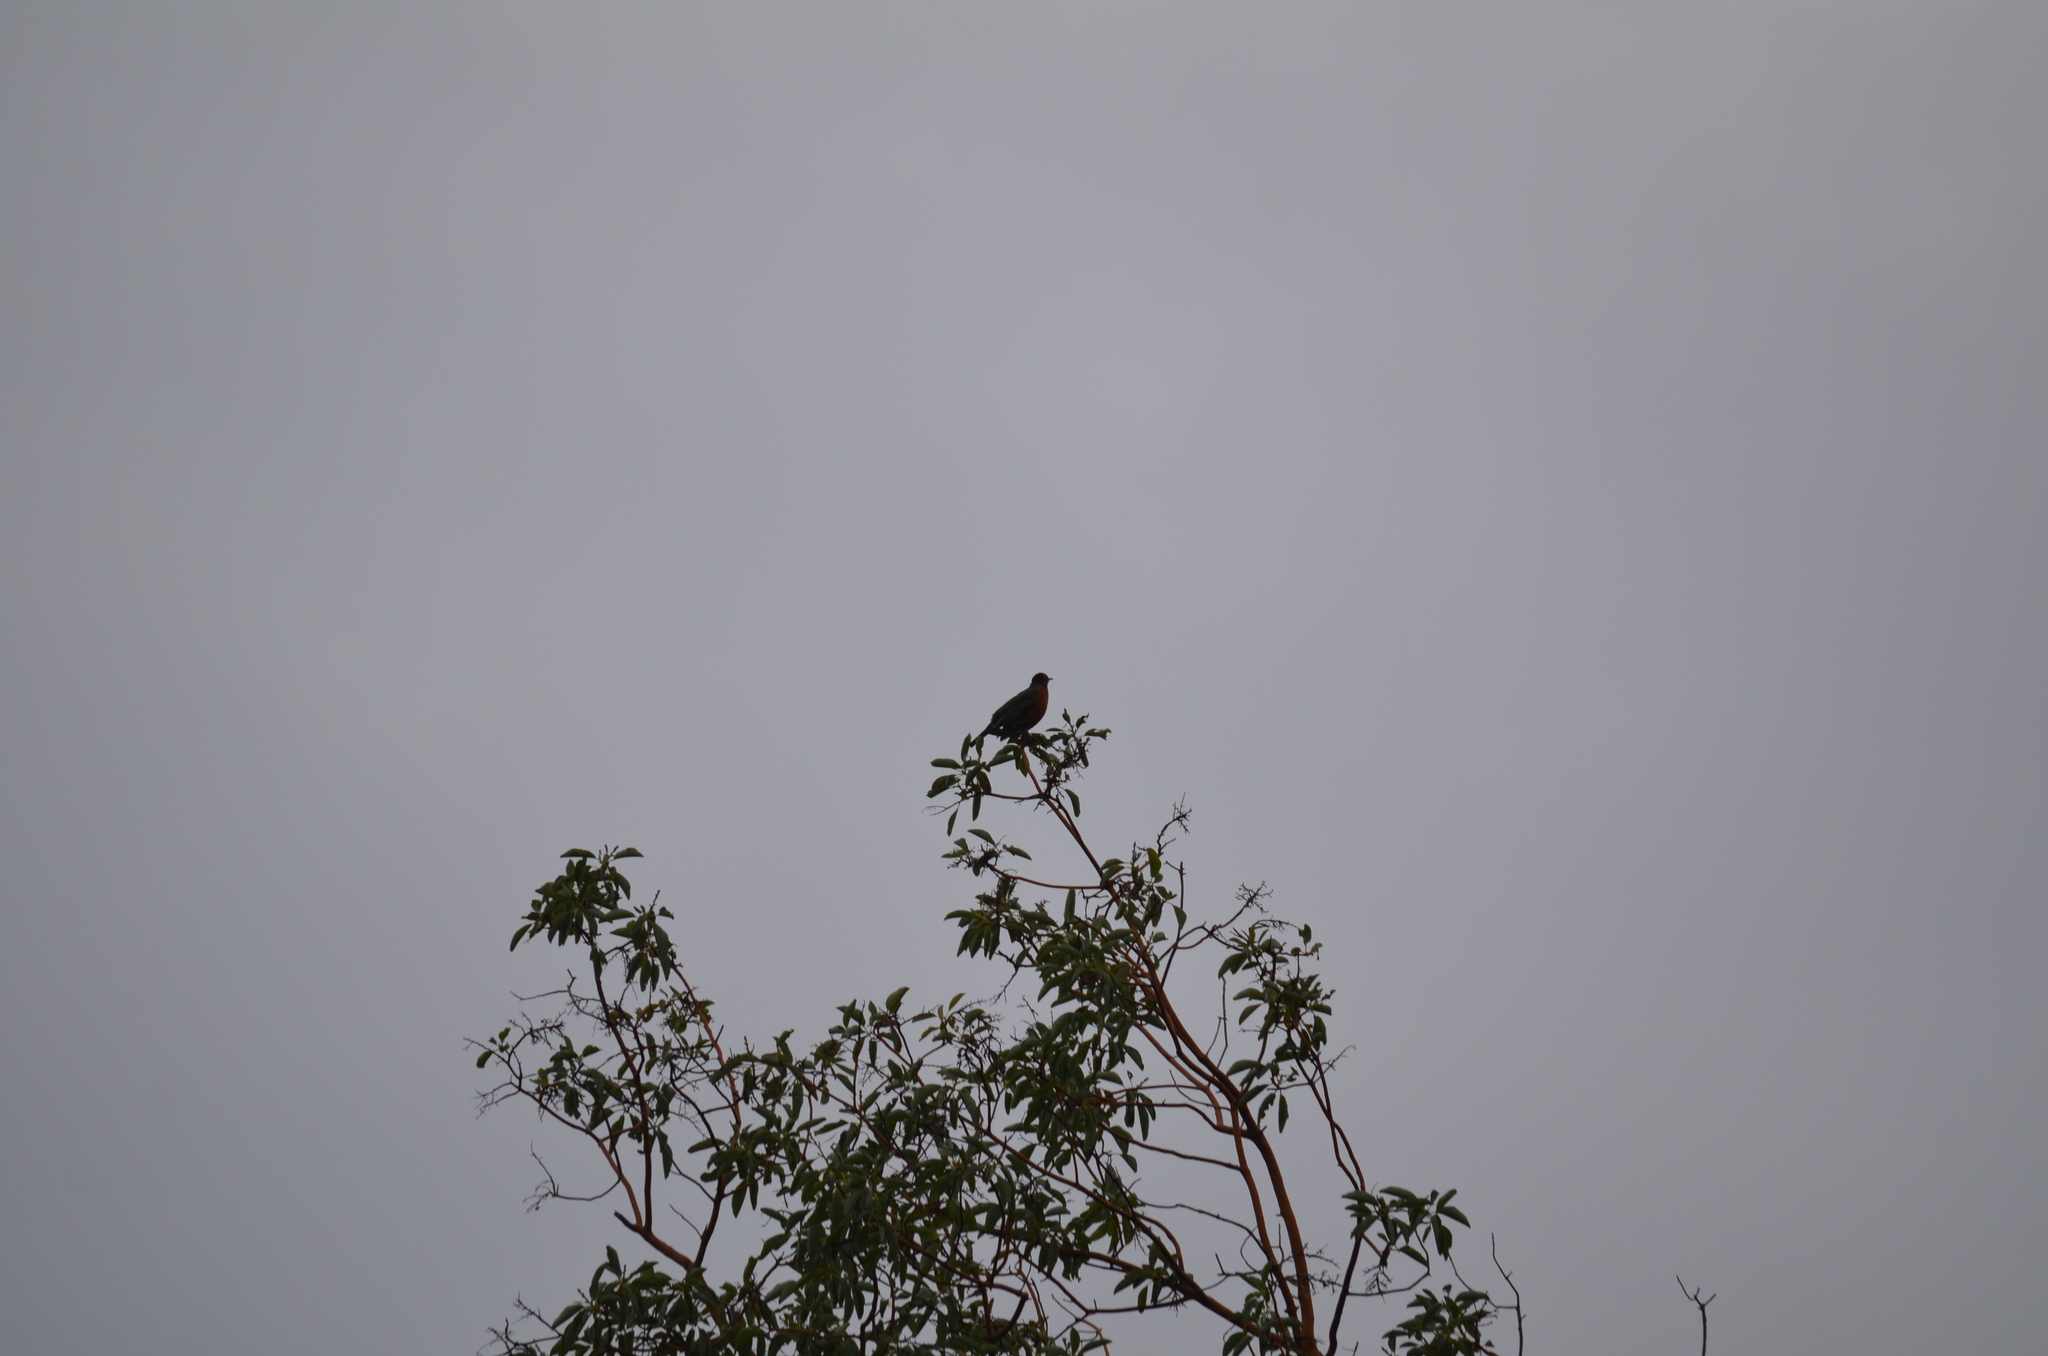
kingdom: Animalia
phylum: Chordata
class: Aves
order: Passeriformes
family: Turdidae
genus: Turdus
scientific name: Turdus migratorius
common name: American robin
